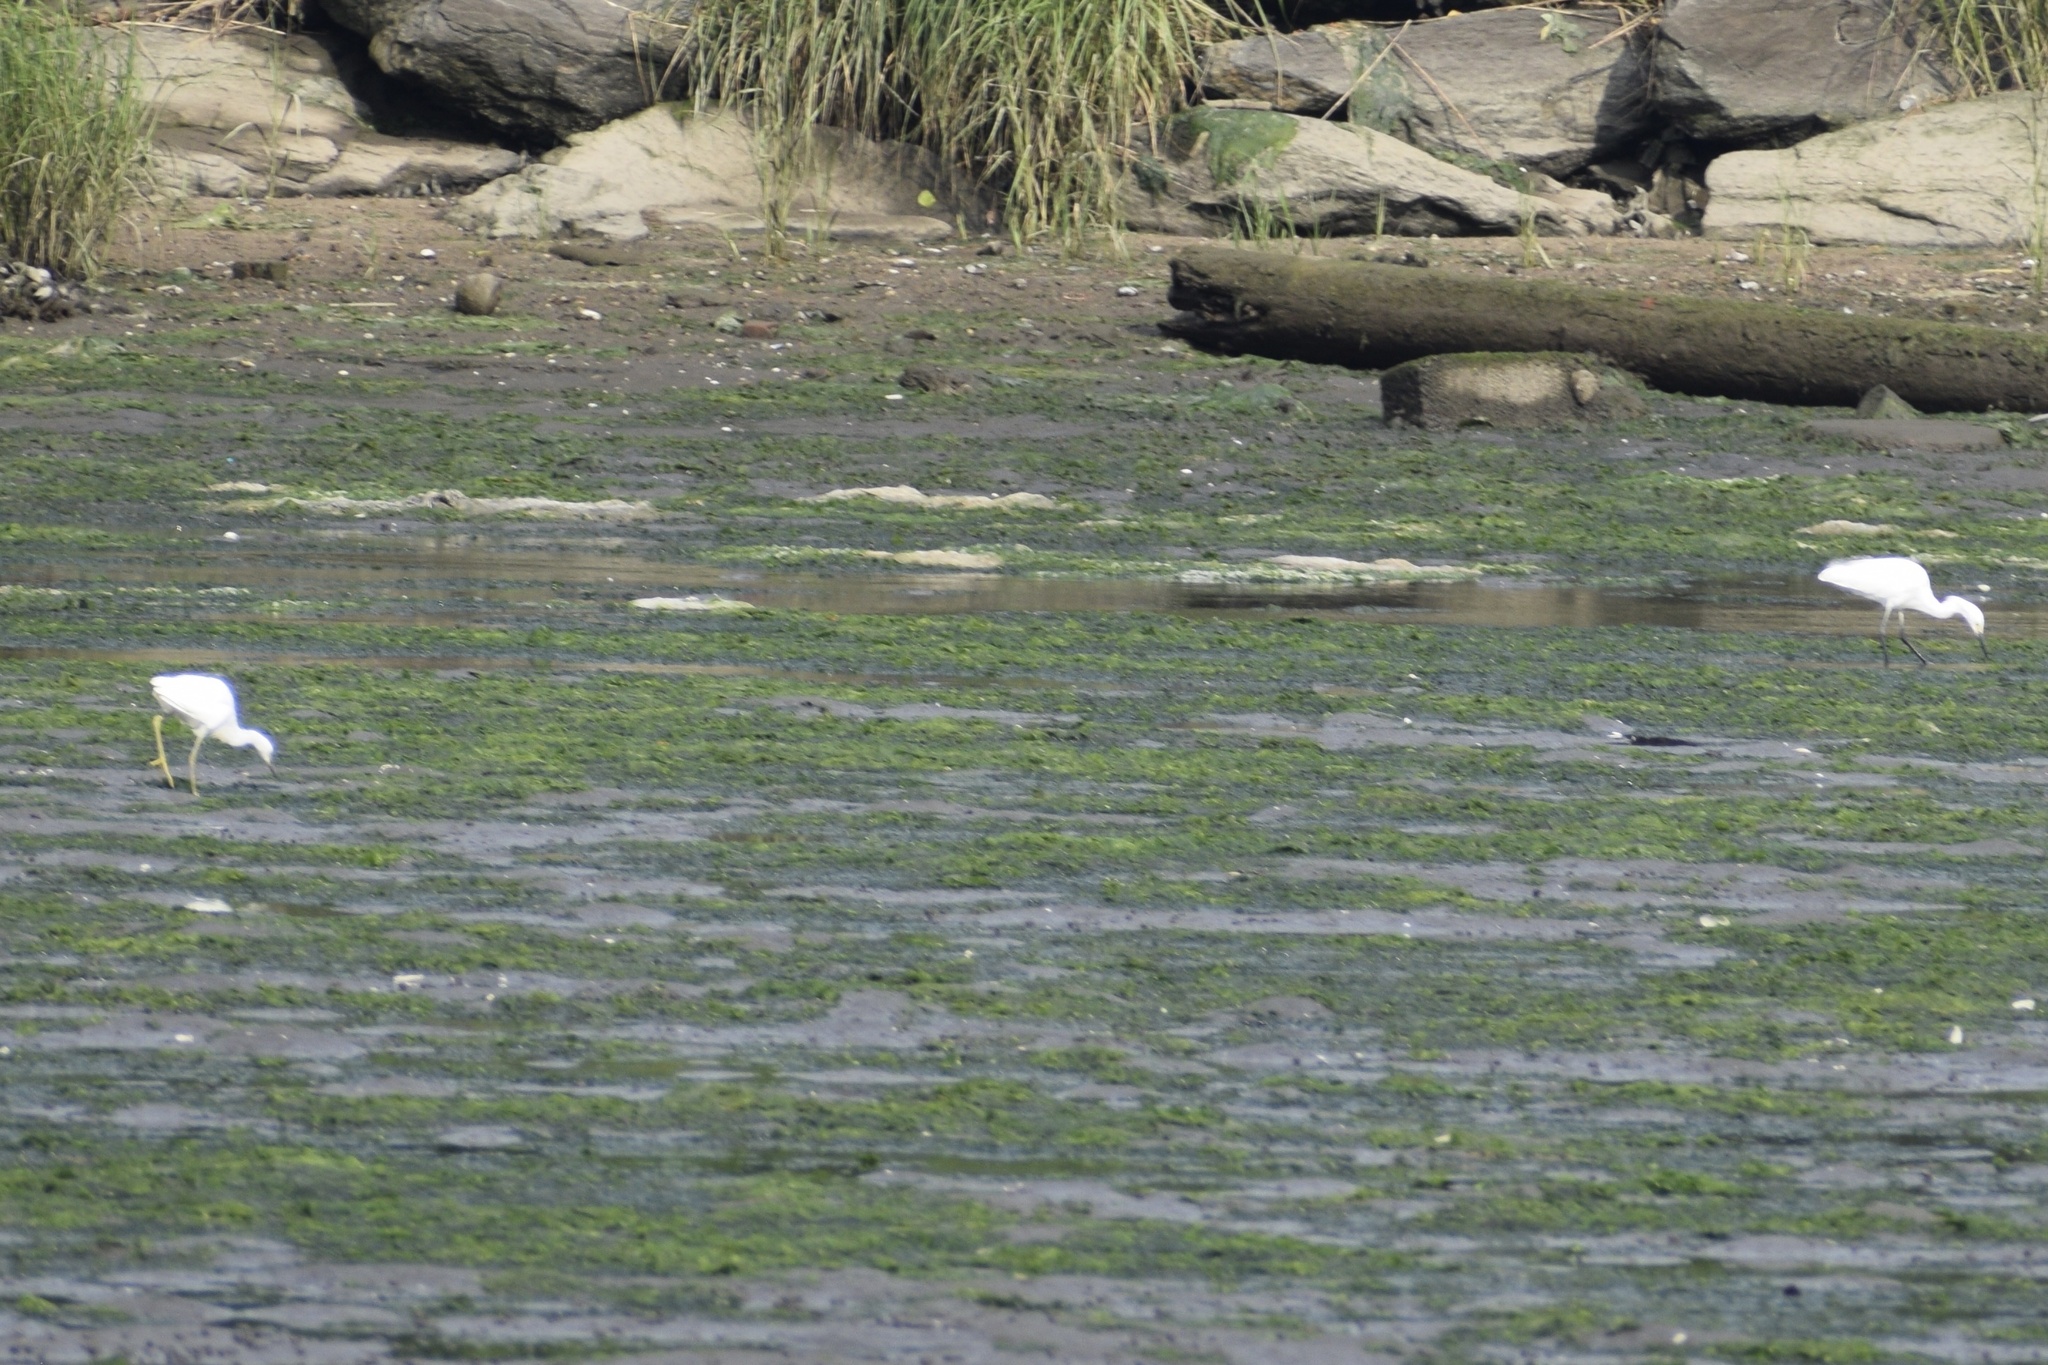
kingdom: Animalia
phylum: Chordata
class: Aves
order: Pelecaniformes
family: Ardeidae
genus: Egretta
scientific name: Egretta caerulea
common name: Little blue heron
